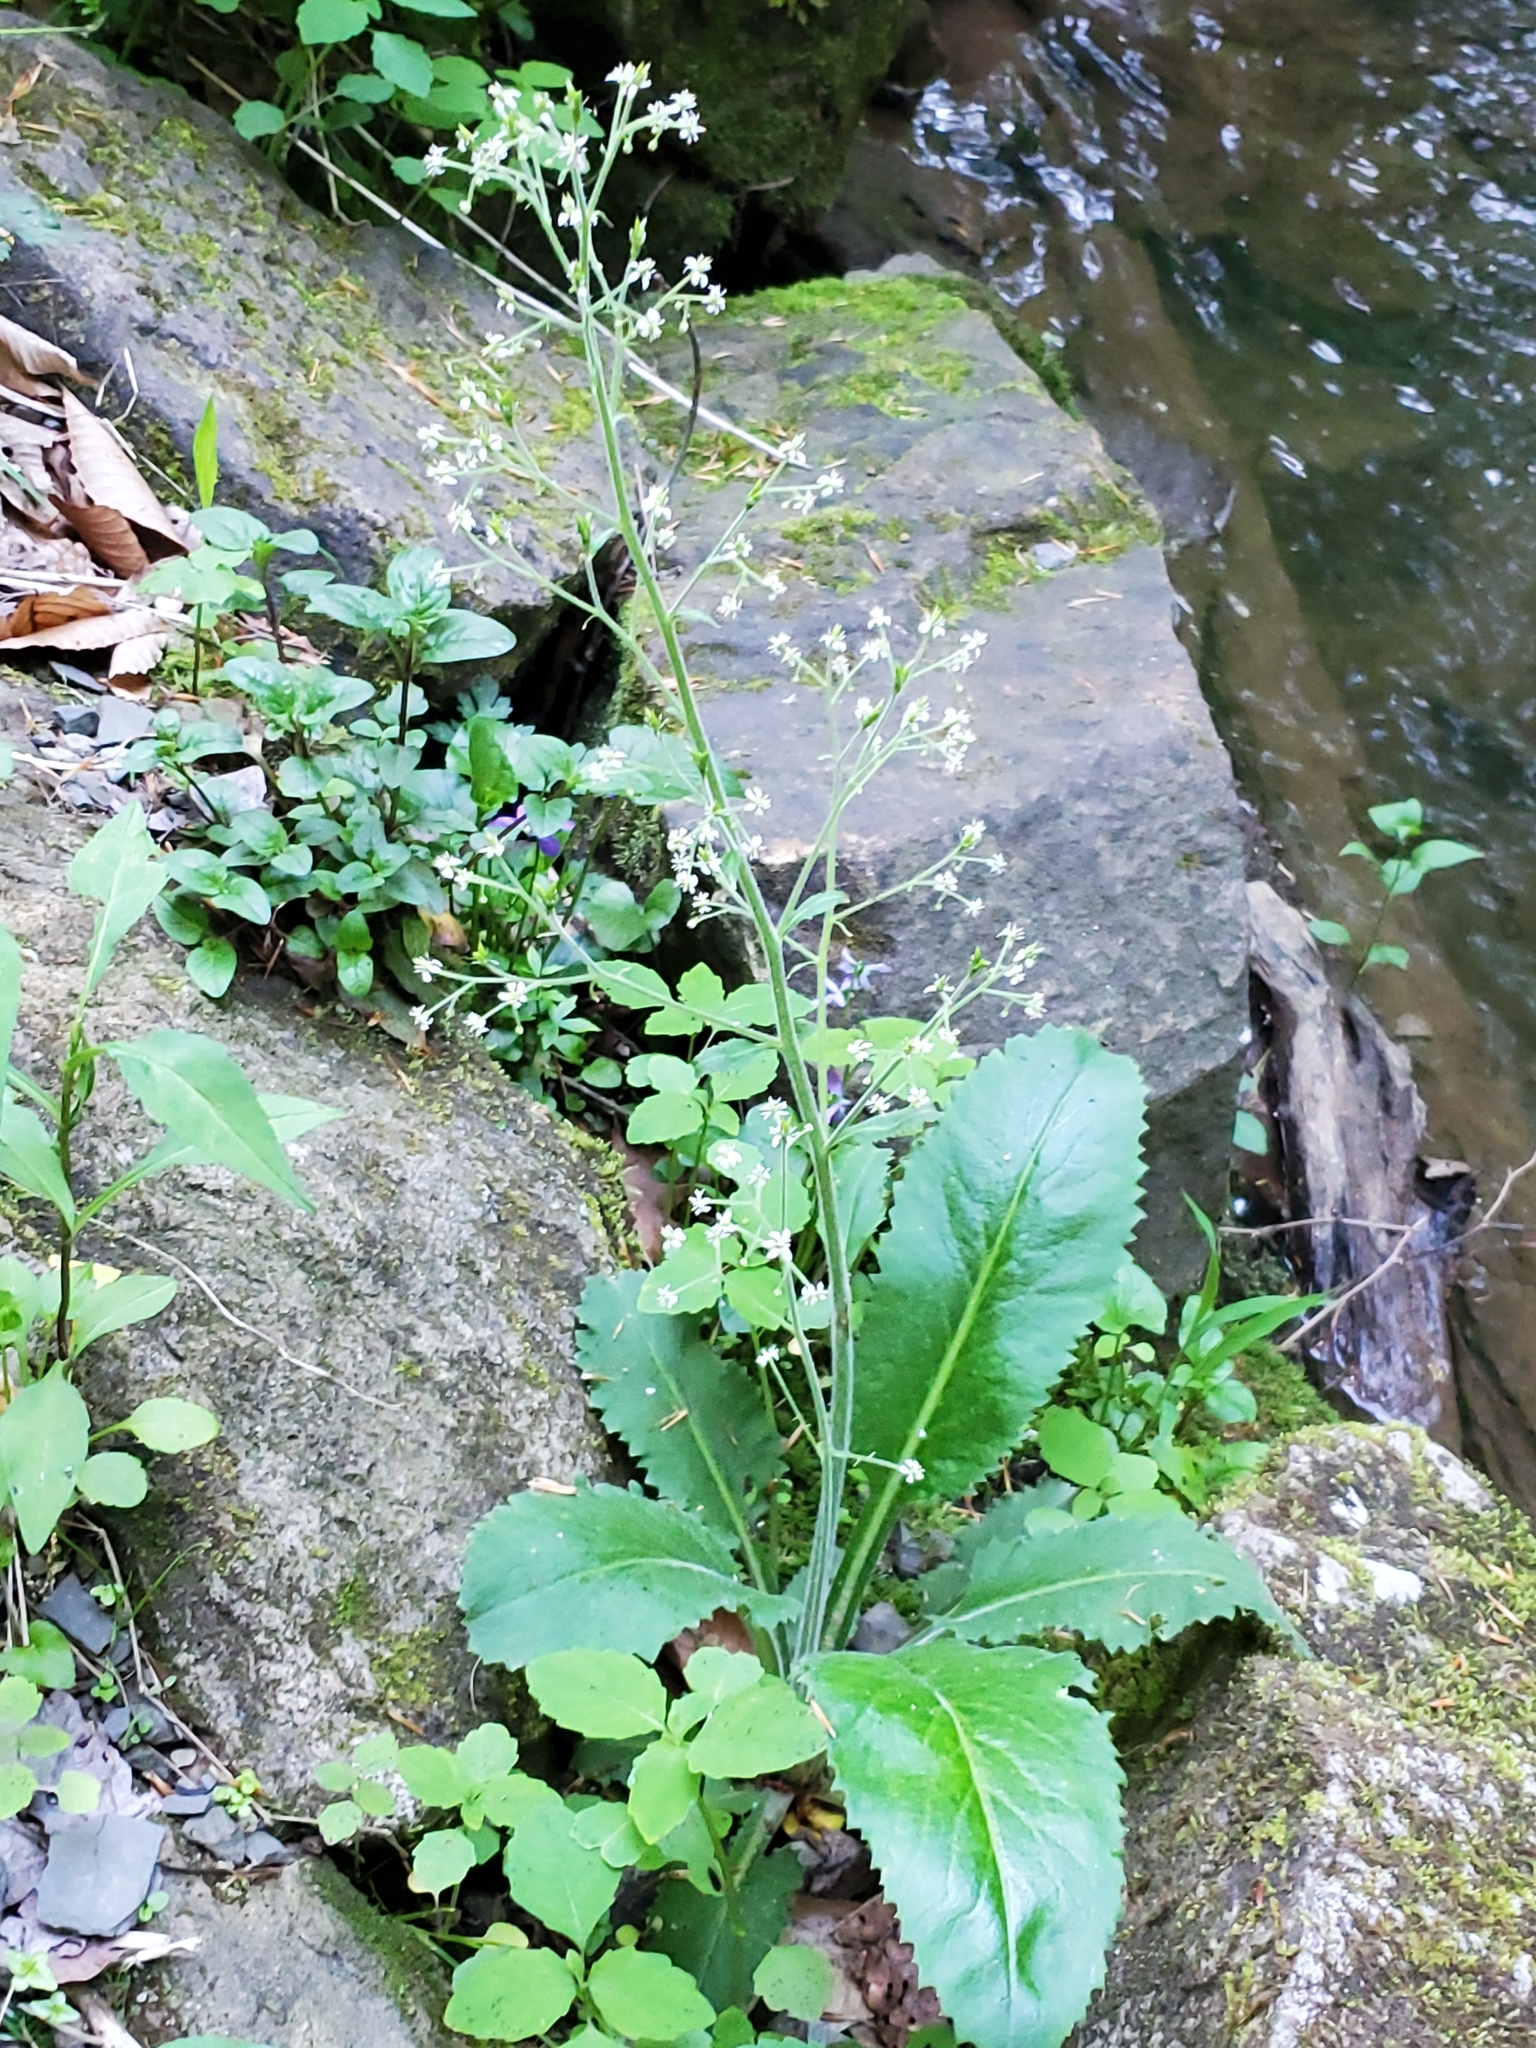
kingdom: Plantae
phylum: Tracheophyta
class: Magnoliopsida
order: Saxifragales
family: Saxifragaceae
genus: Micranthes
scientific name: Micranthes micranthidifolia
